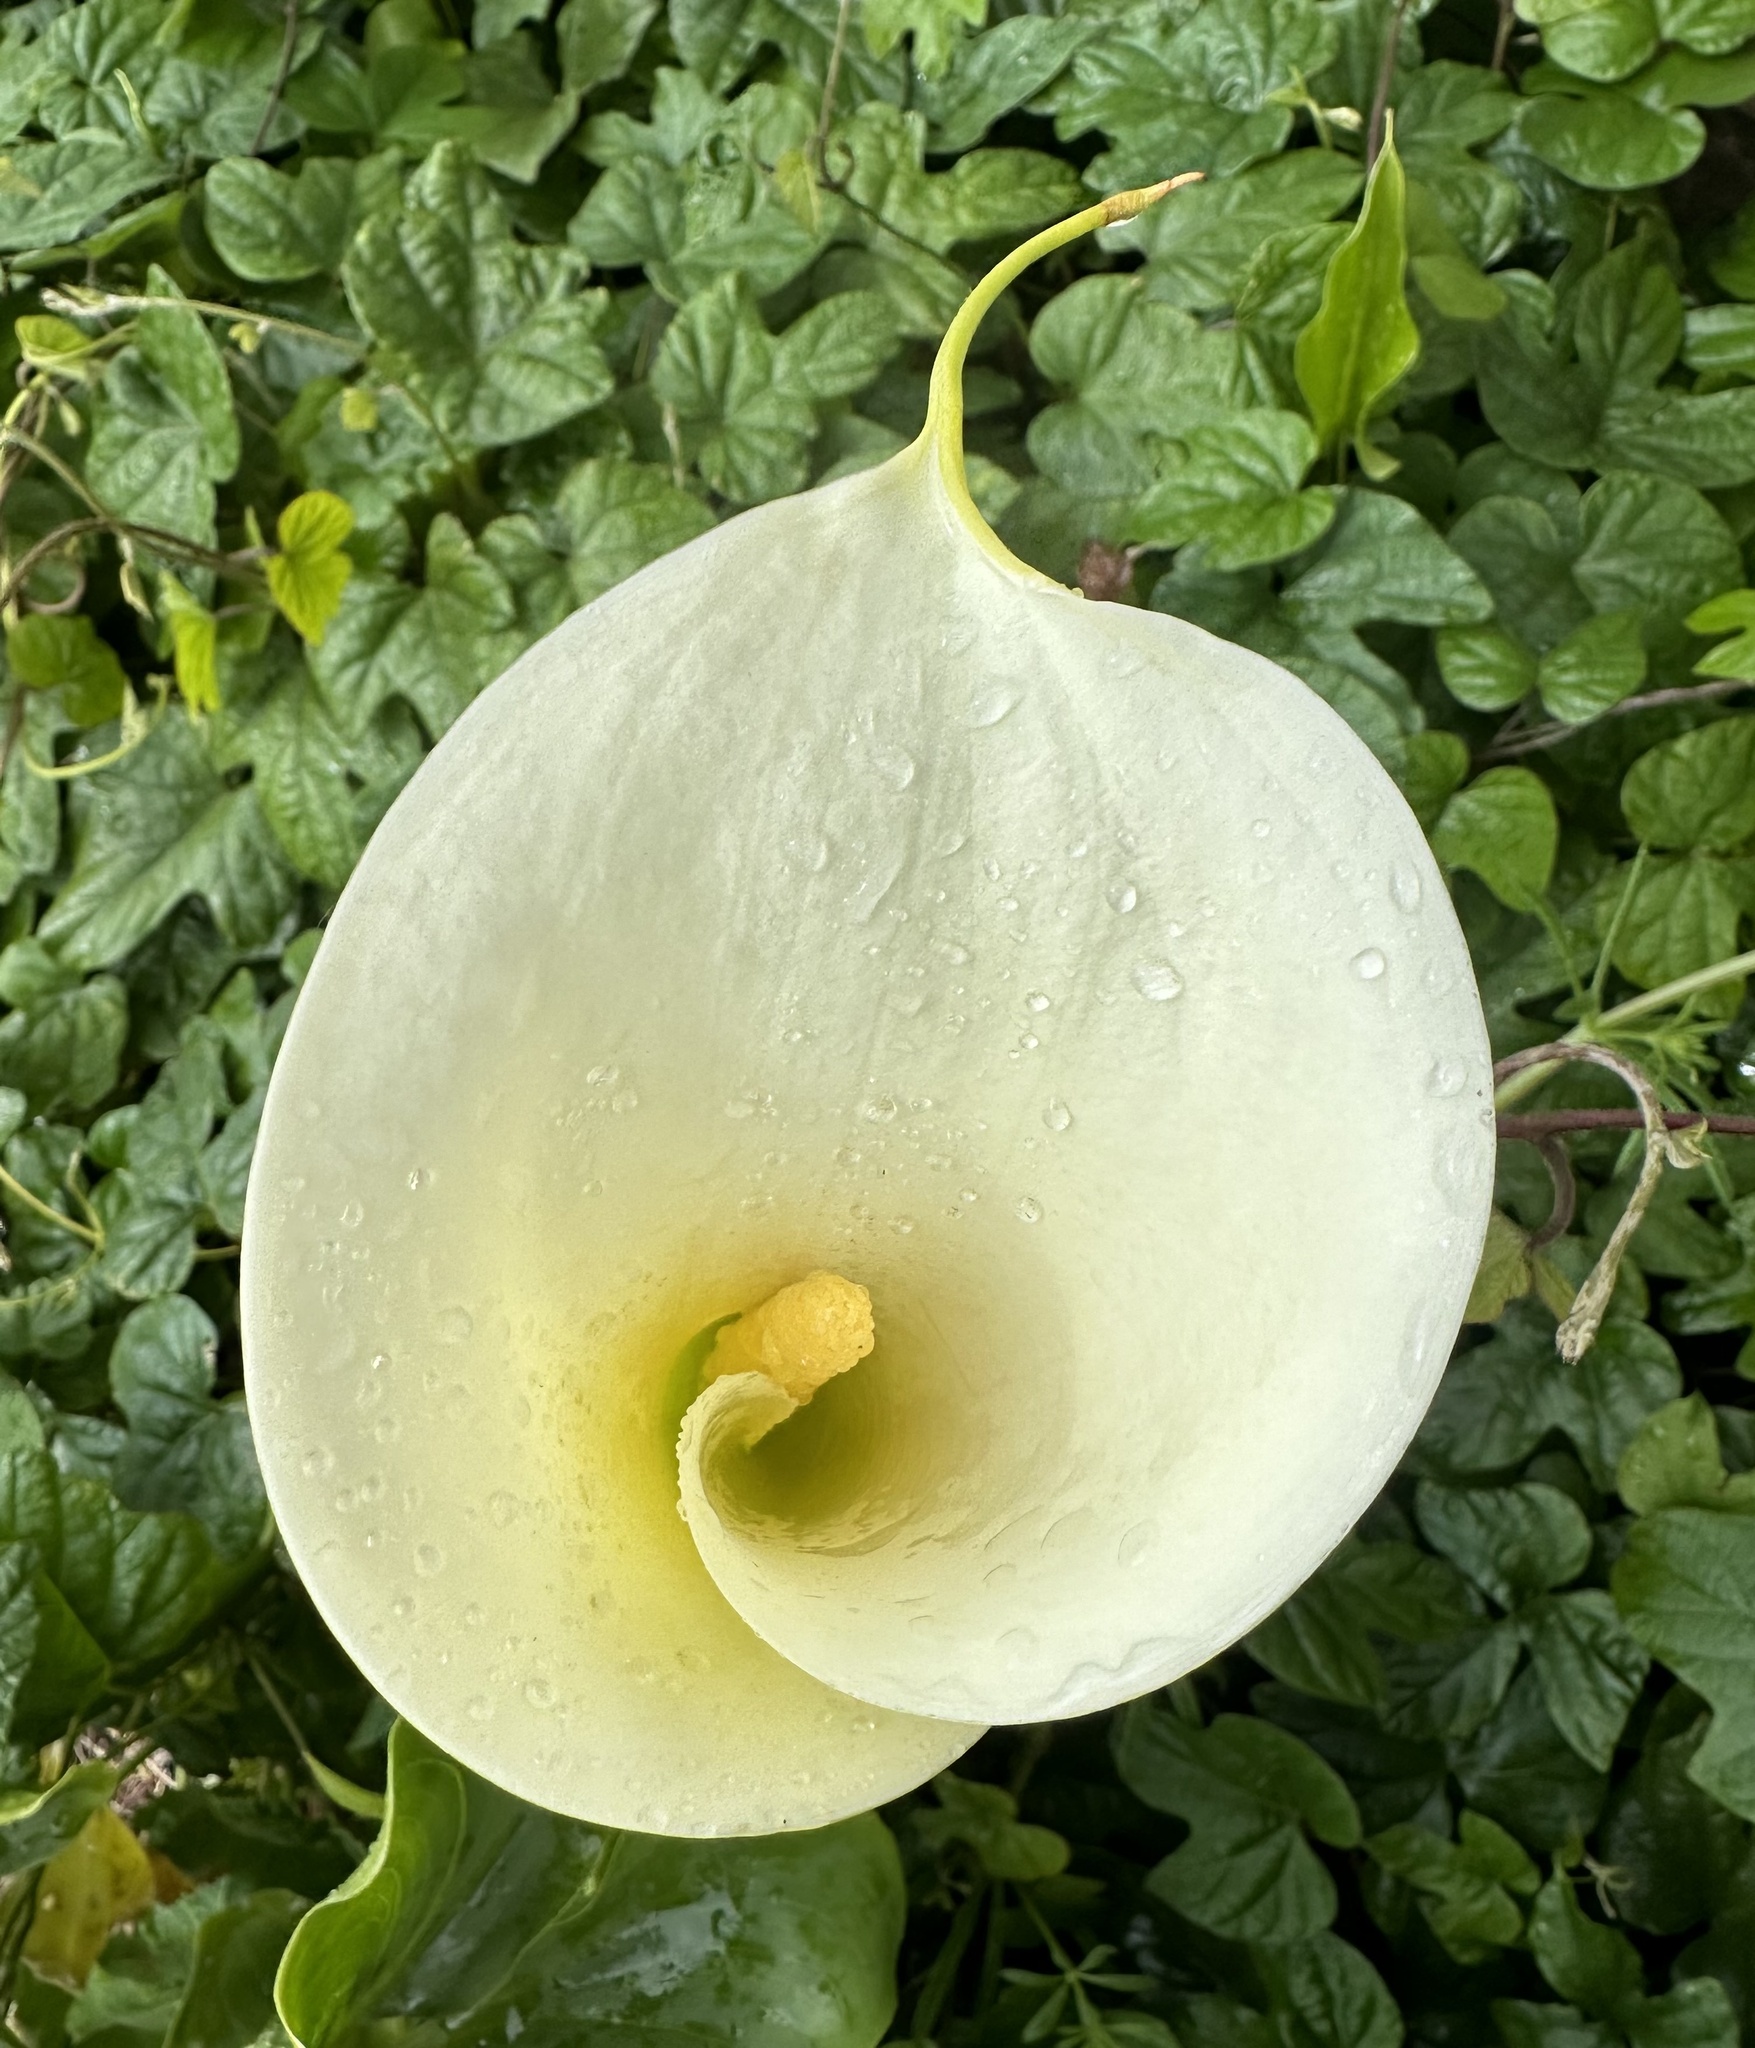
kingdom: Plantae
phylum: Tracheophyta
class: Liliopsida
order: Alismatales
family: Araceae
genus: Zantedeschia
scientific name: Zantedeschia aethiopica
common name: Altar-lily
